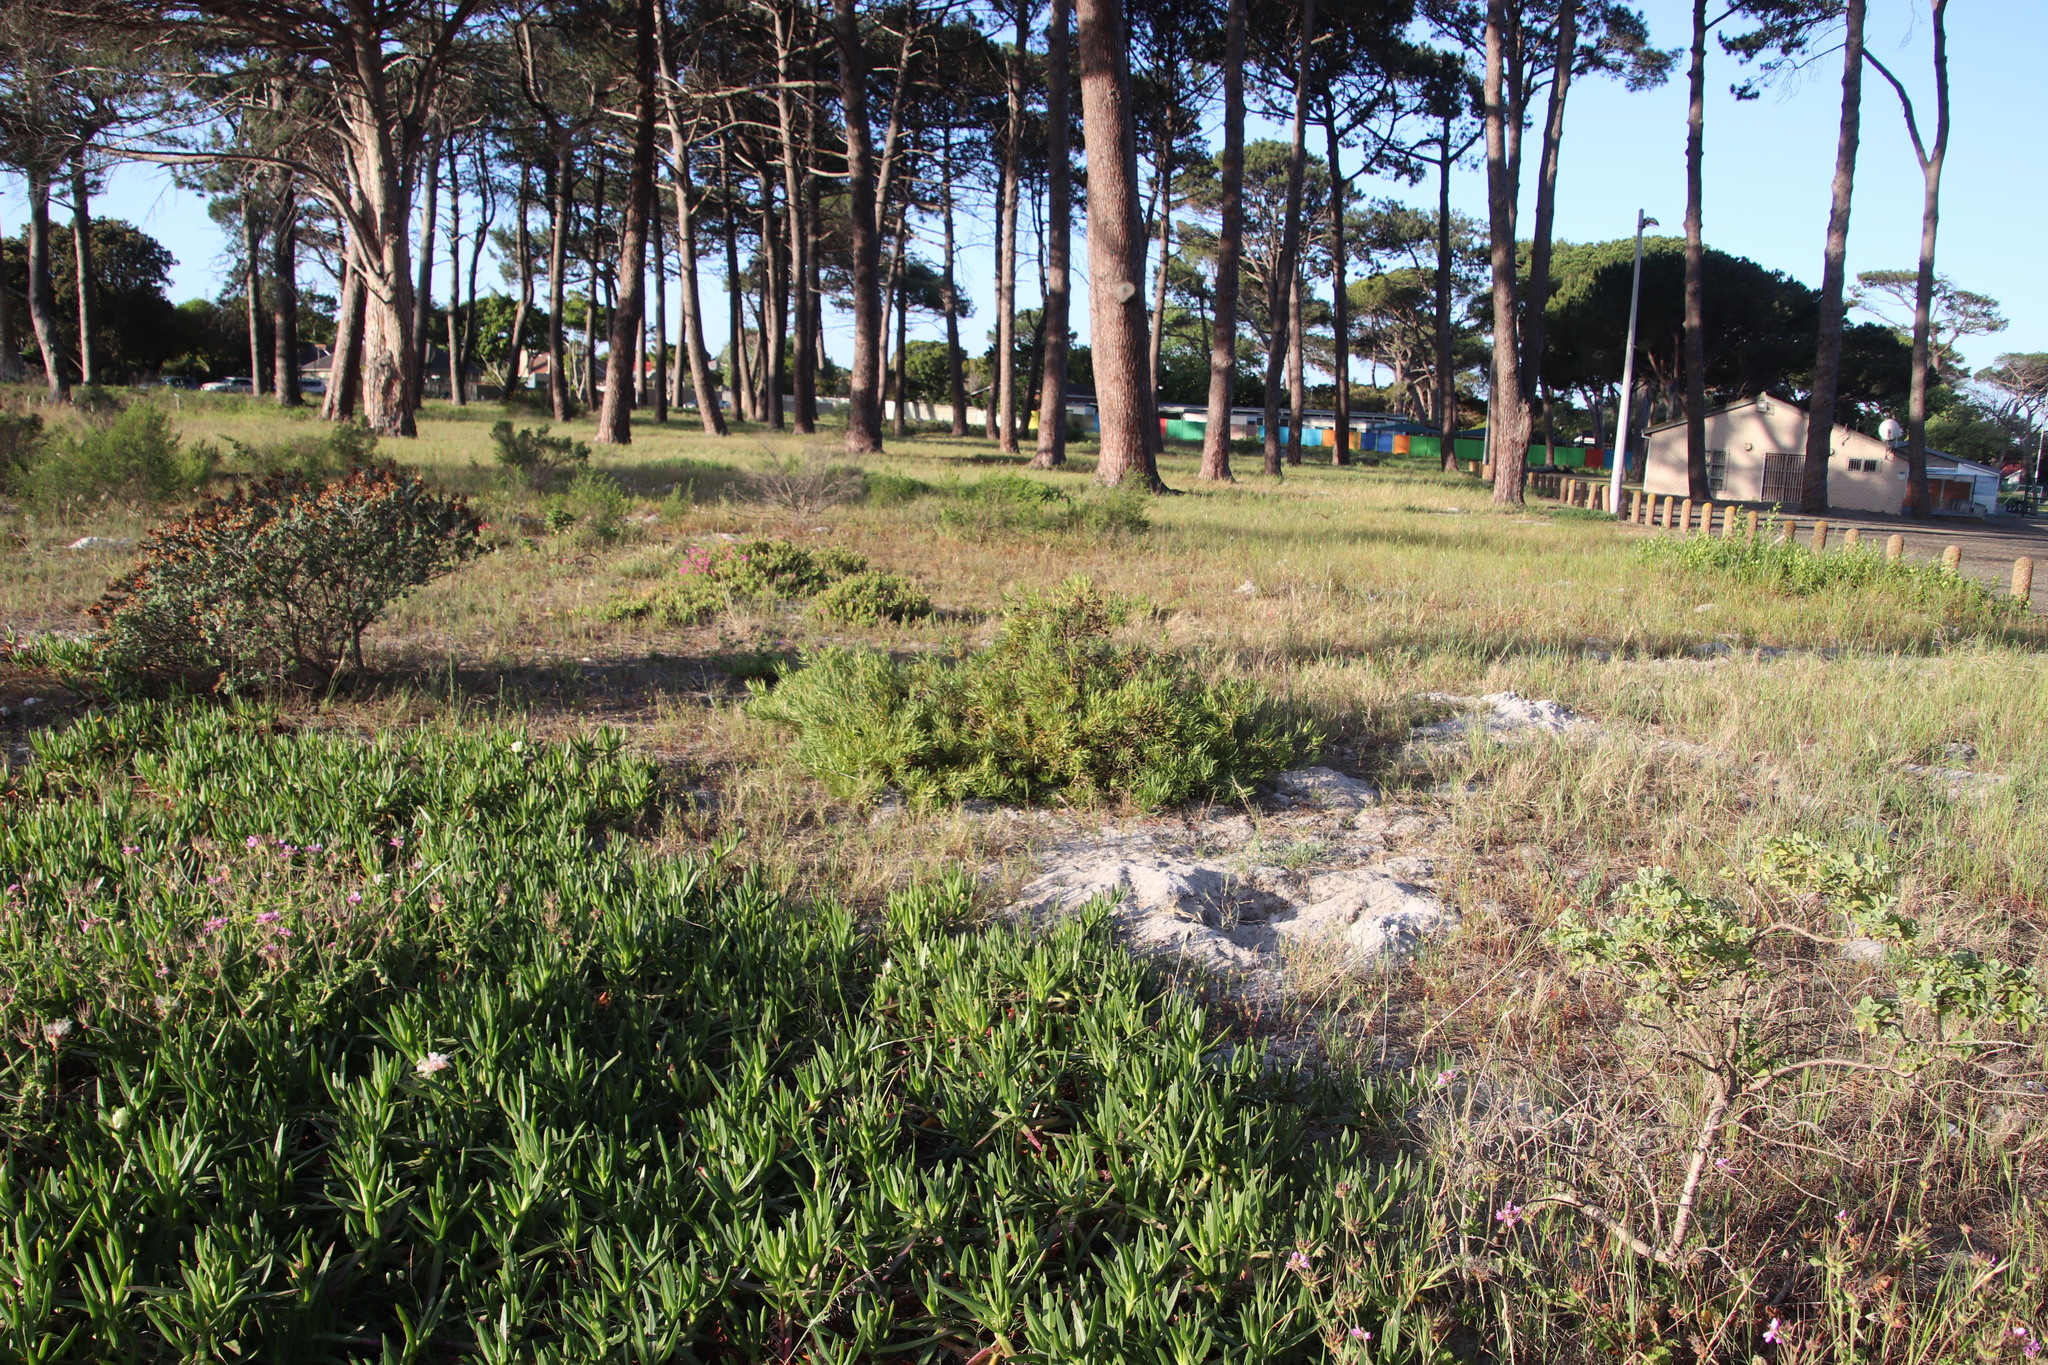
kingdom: Plantae
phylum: Tracheophyta
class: Magnoliopsida
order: Proteales
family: Proteaceae
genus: Leucadendron
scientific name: Leucadendron salignum
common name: Common sunshine conebush
